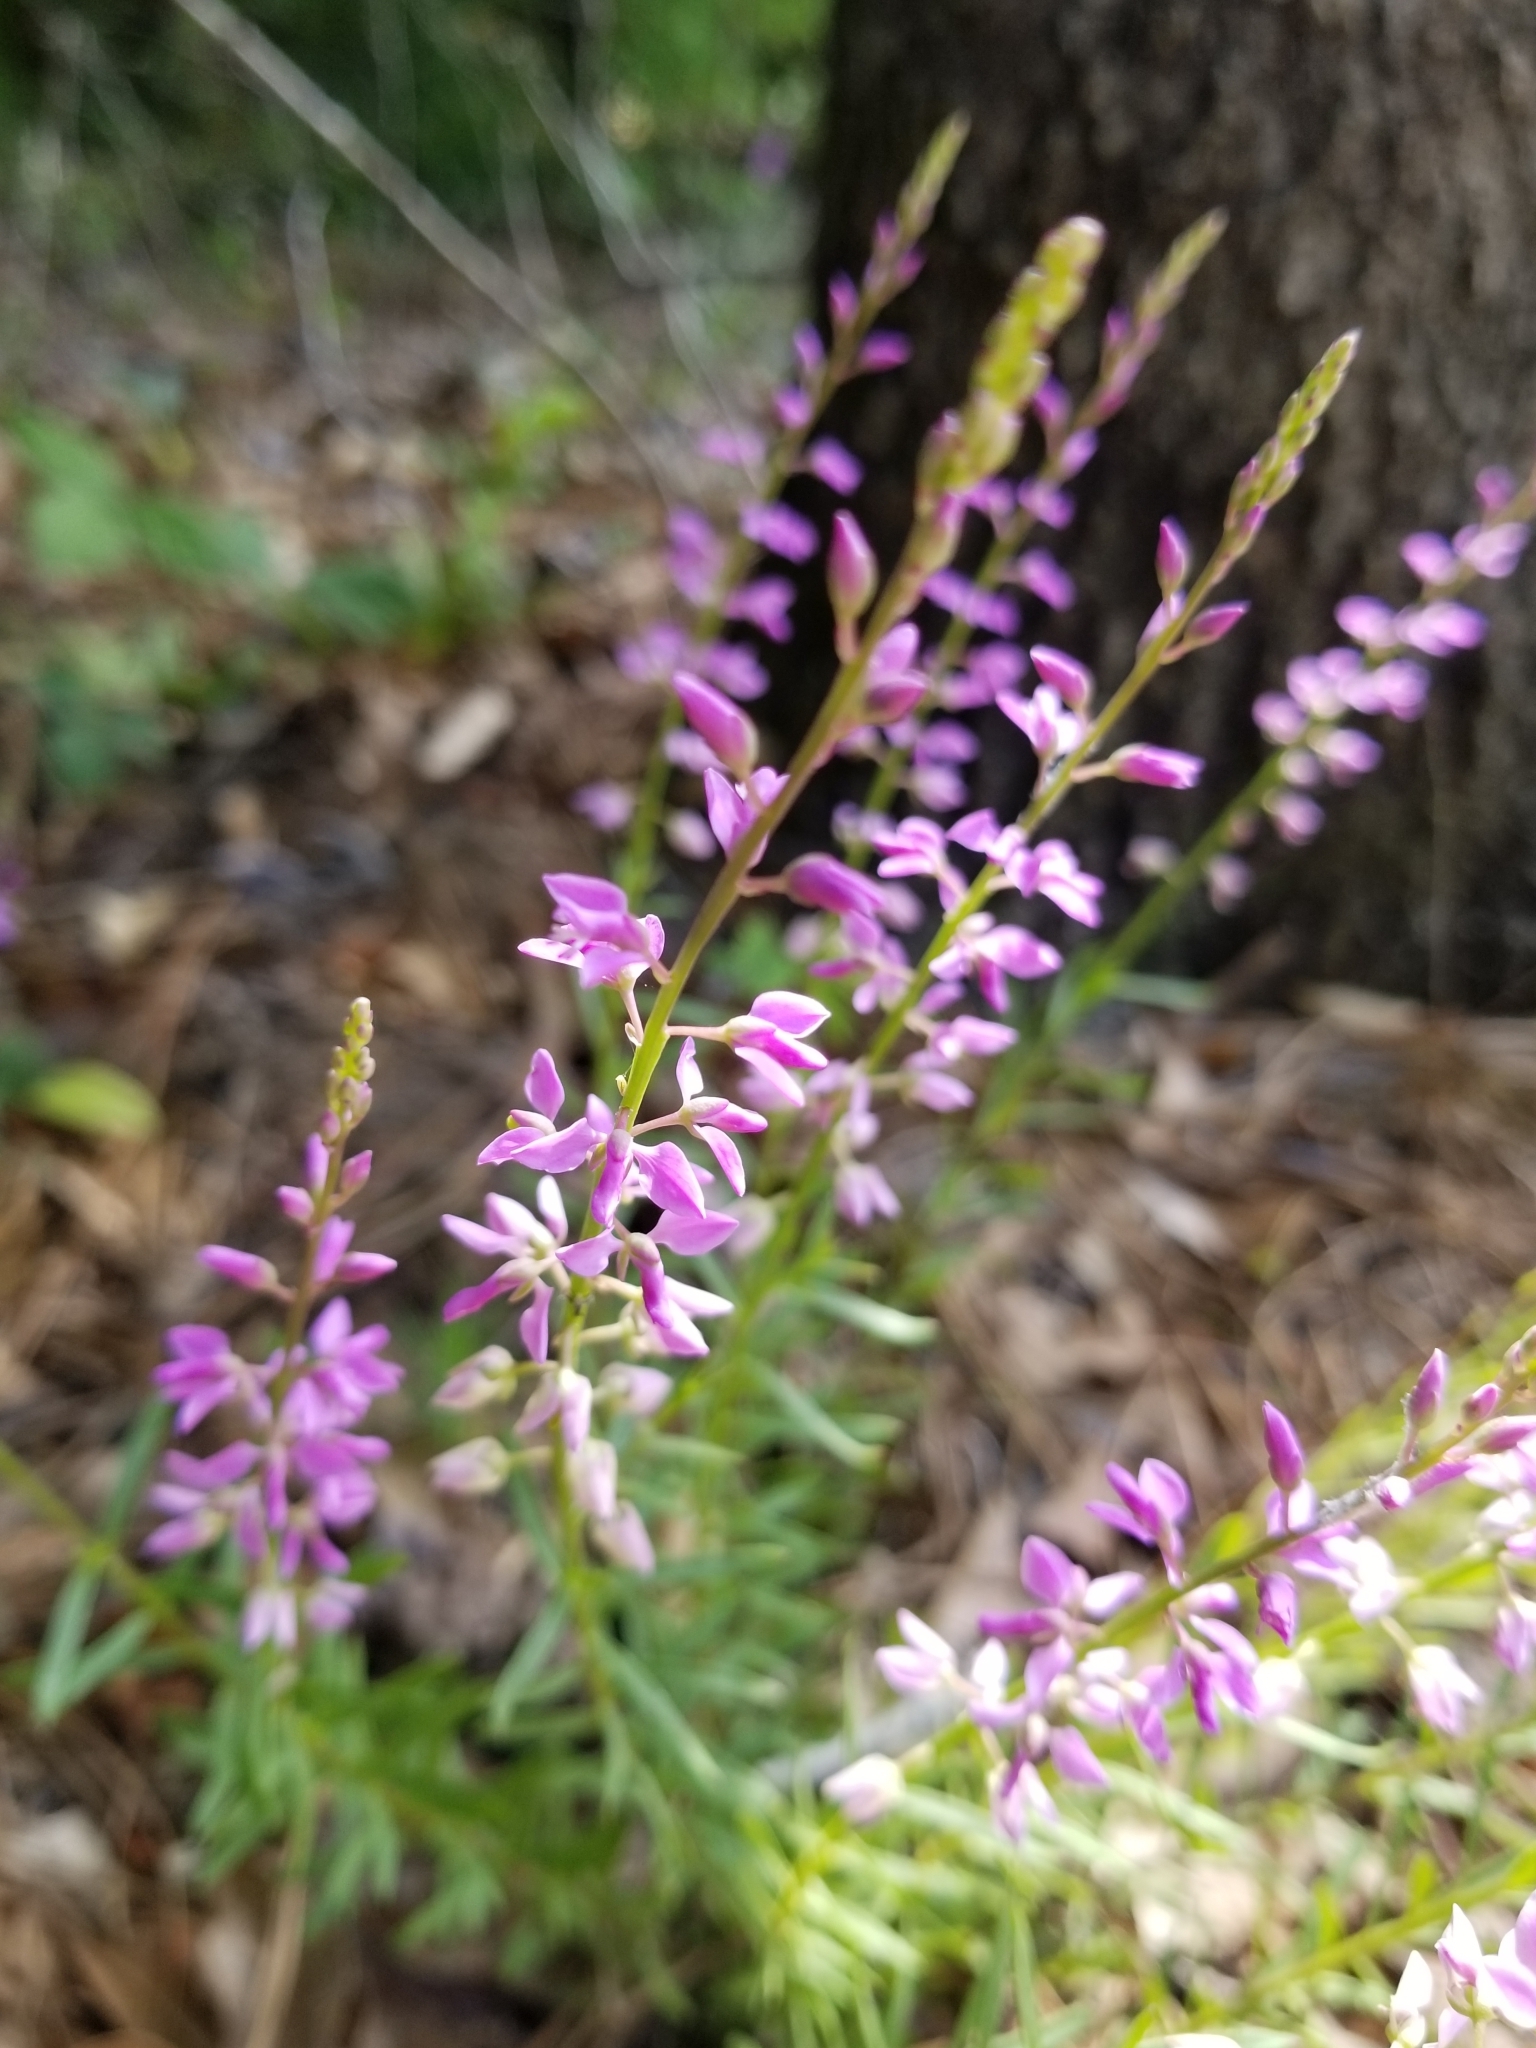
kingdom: Plantae
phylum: Tracheophyta
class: Magnoliopsida
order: Fabales
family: Polygalaceae
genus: Polygala
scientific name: Polygala polygama
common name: Bitter milkwort
